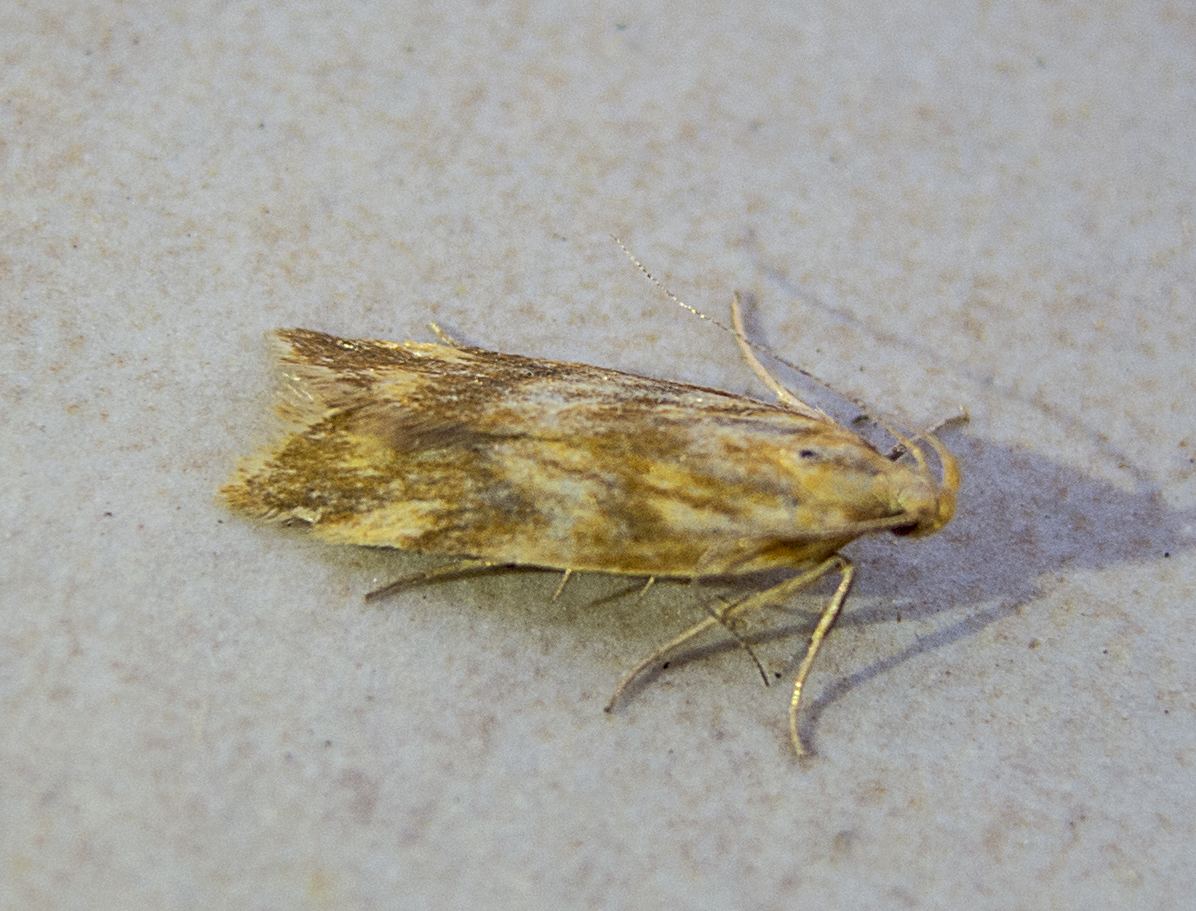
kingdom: Animalia
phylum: Arthropoda
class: Insecta
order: Lepidoptera
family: Gelechiidae
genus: Mirificarma
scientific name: Mirificarma eburnella
